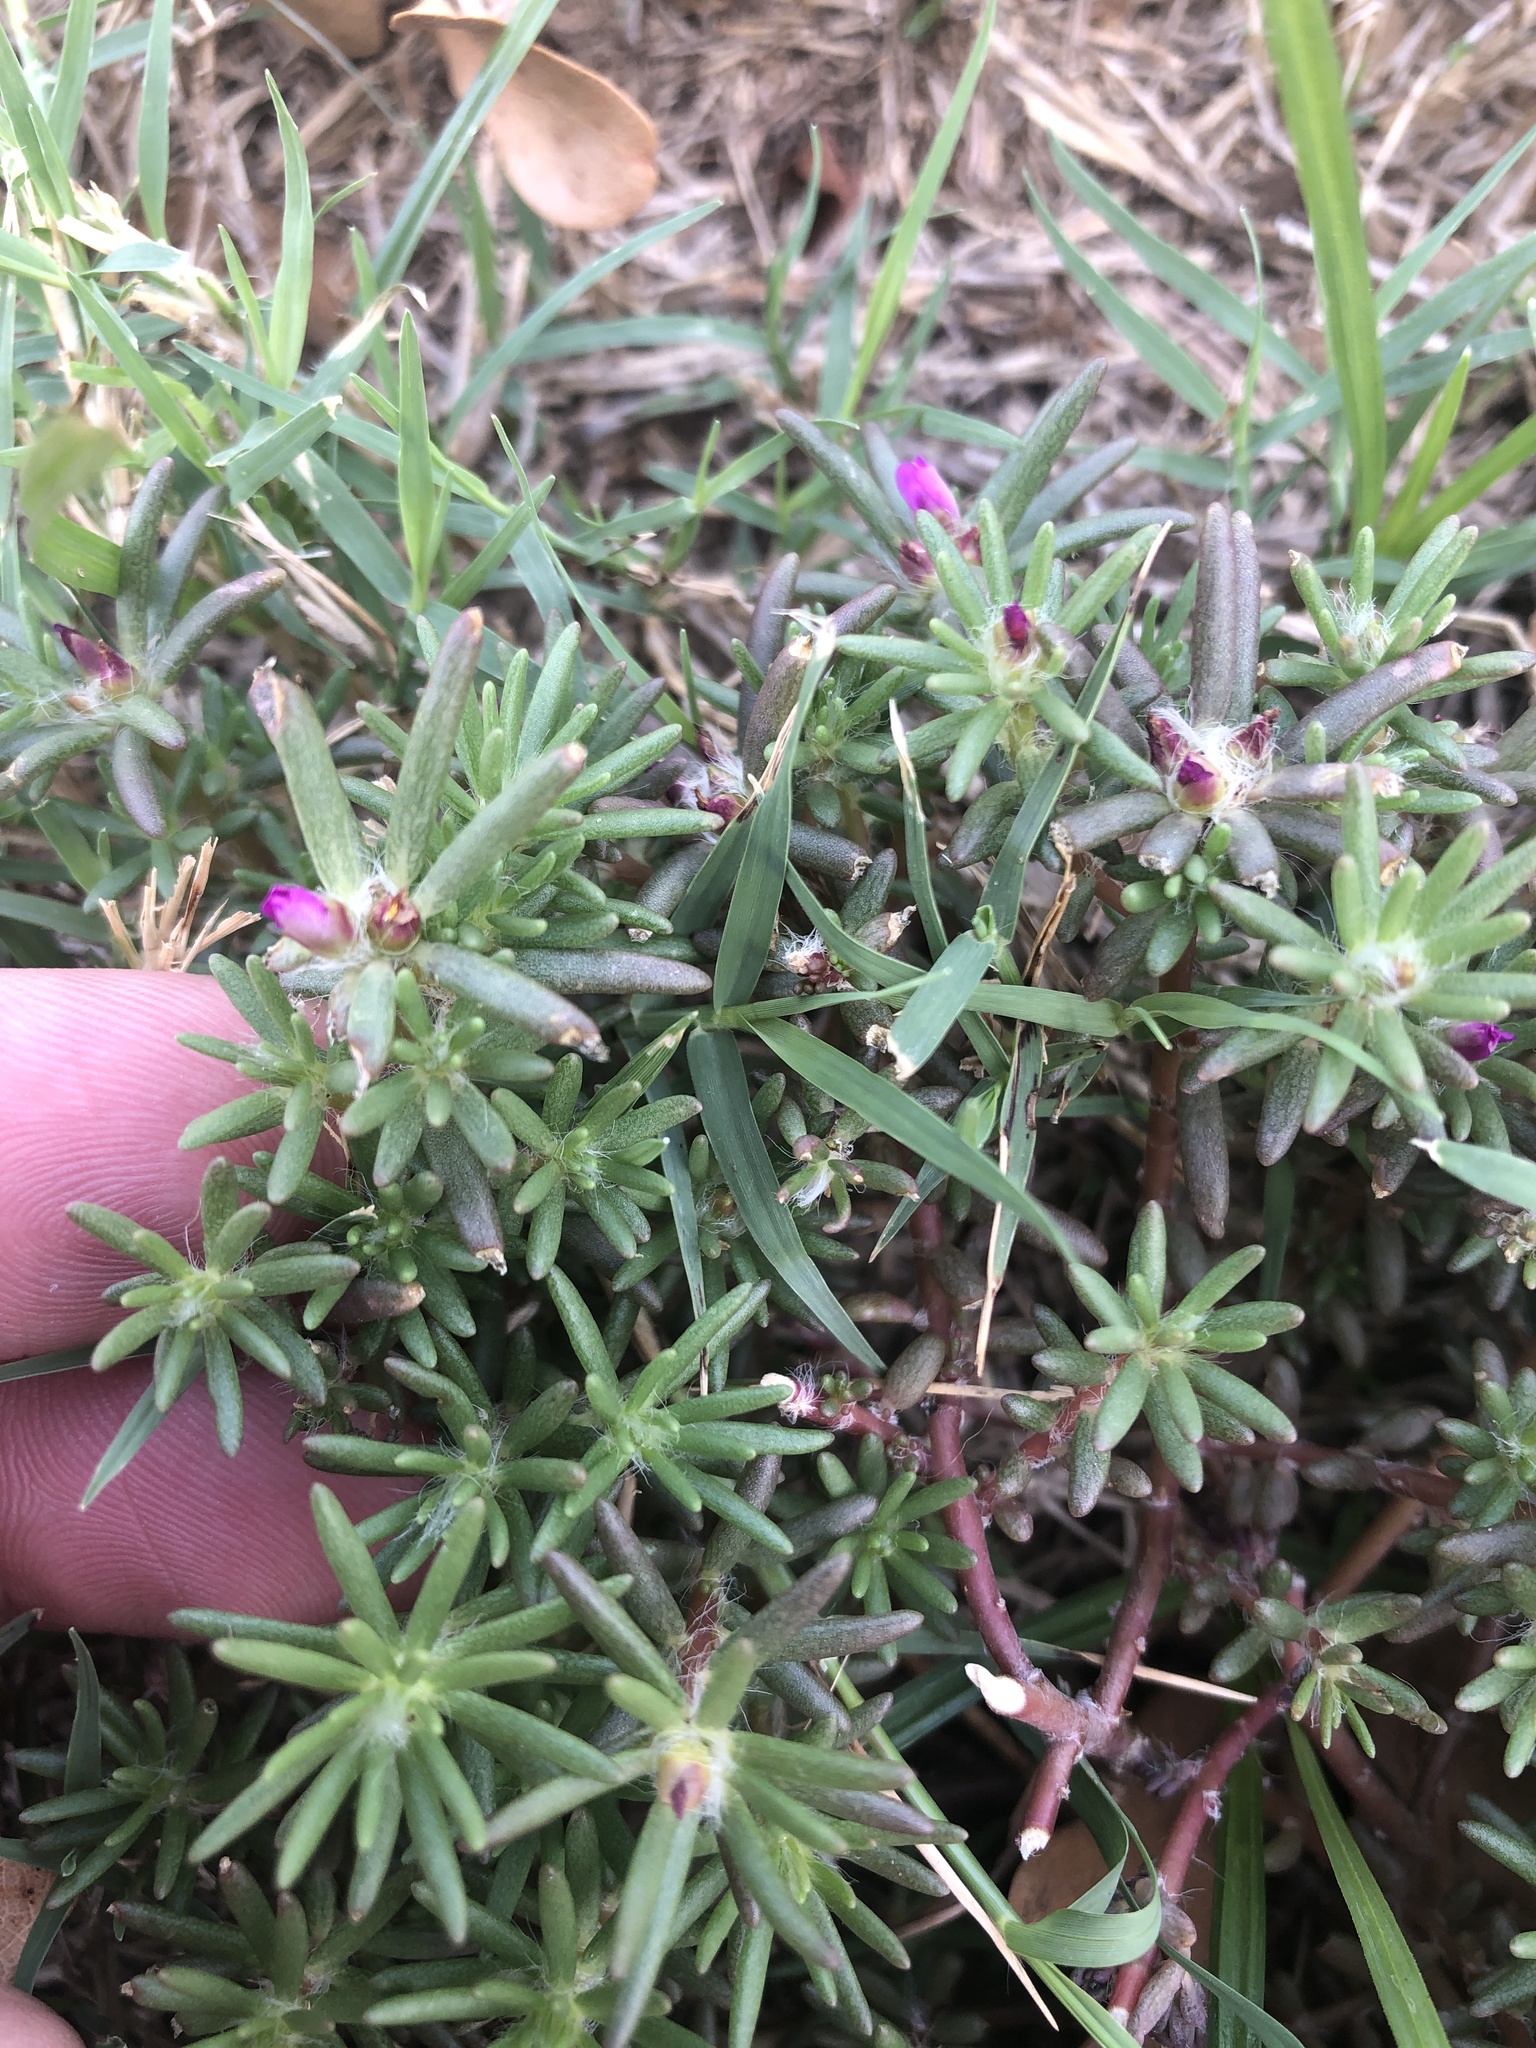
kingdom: Plantae
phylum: Tracheophyta
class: Magnoliopsida
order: Caryophyllales
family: Portulacaceae
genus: Portulaca
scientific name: Portulaca pilosa
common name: Kiss me quick
